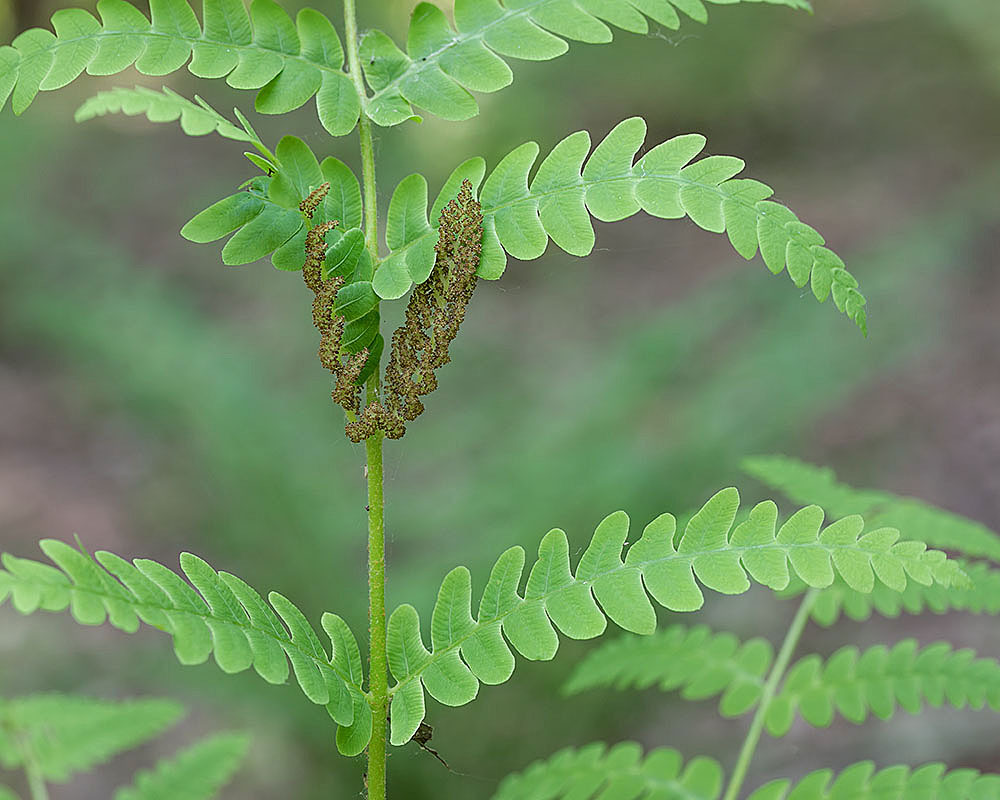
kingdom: Plantae
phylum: Tracheophyta
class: Polypodiopsida
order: Osmundales
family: Osmundaceae
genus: Claytosmunda
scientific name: Claytosmunda claytoniana
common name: Clayton's fern
